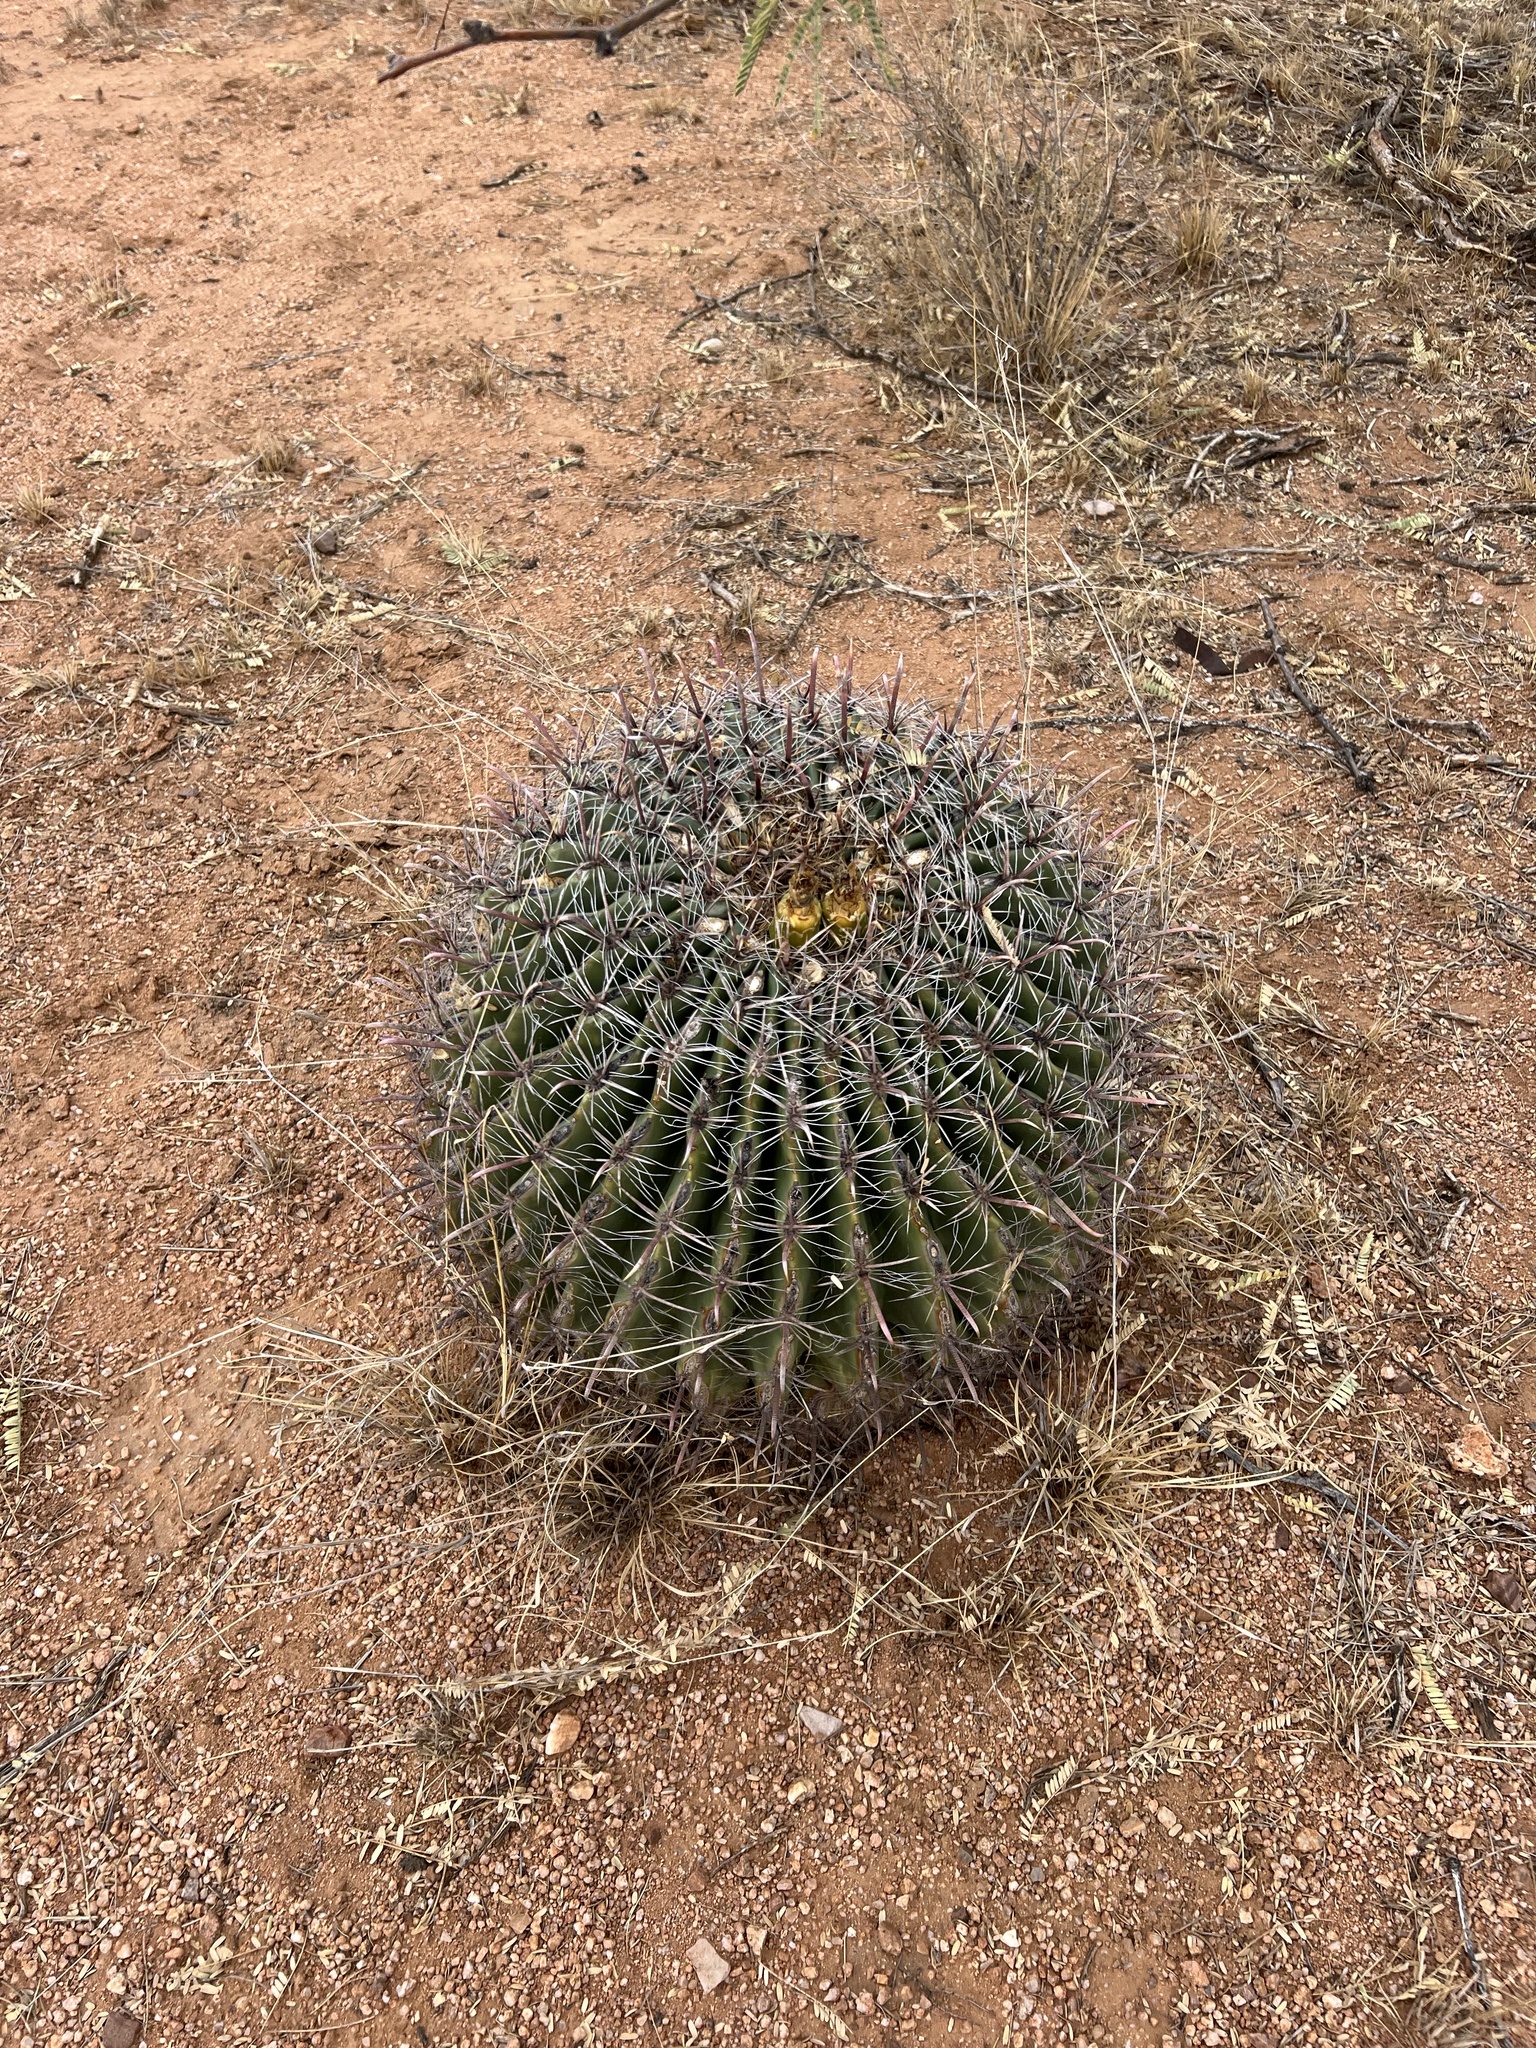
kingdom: Plantae
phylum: Tracheophyta
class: Magnoliopsida
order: Caryophyllales
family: Cactaceae
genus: Ferocactus
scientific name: Ferocactus wislizeni
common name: Candy barrel cactus
